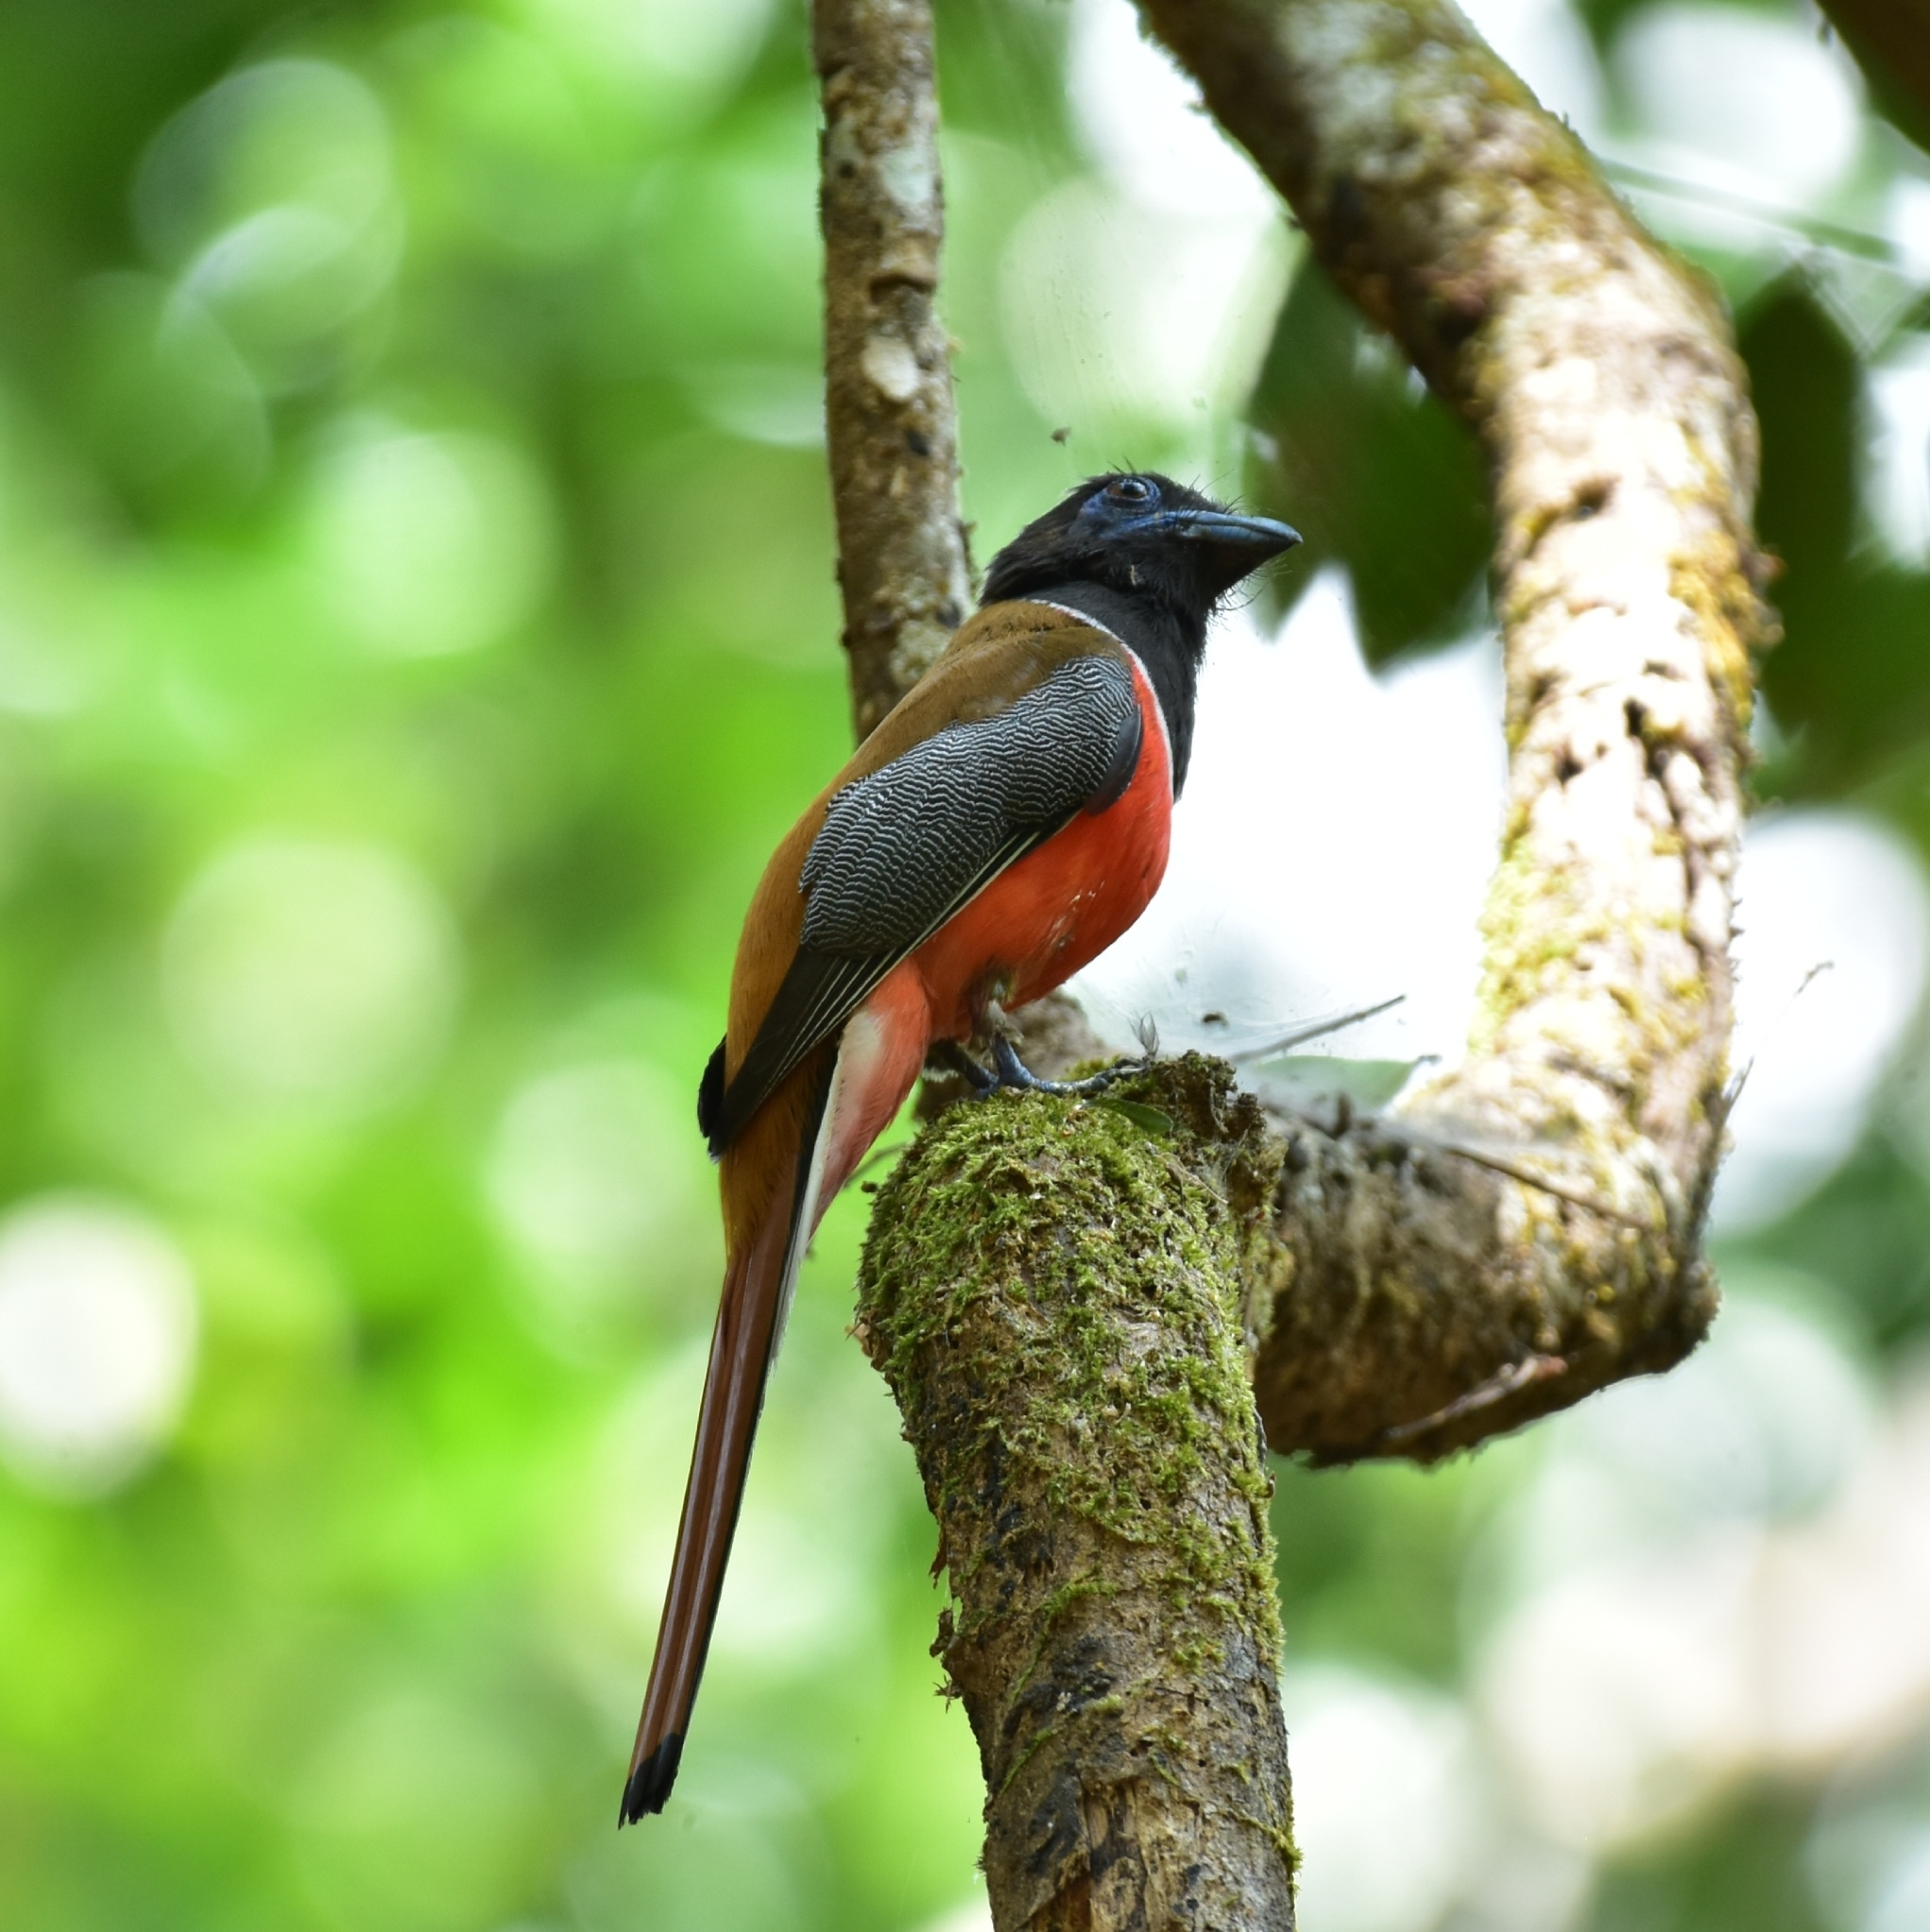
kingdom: Animalia
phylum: Chordata
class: Aves
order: Trogoniformes
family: Trogonidae
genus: Harpactes
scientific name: Harpactes fasciatus
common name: Malabar trogon
